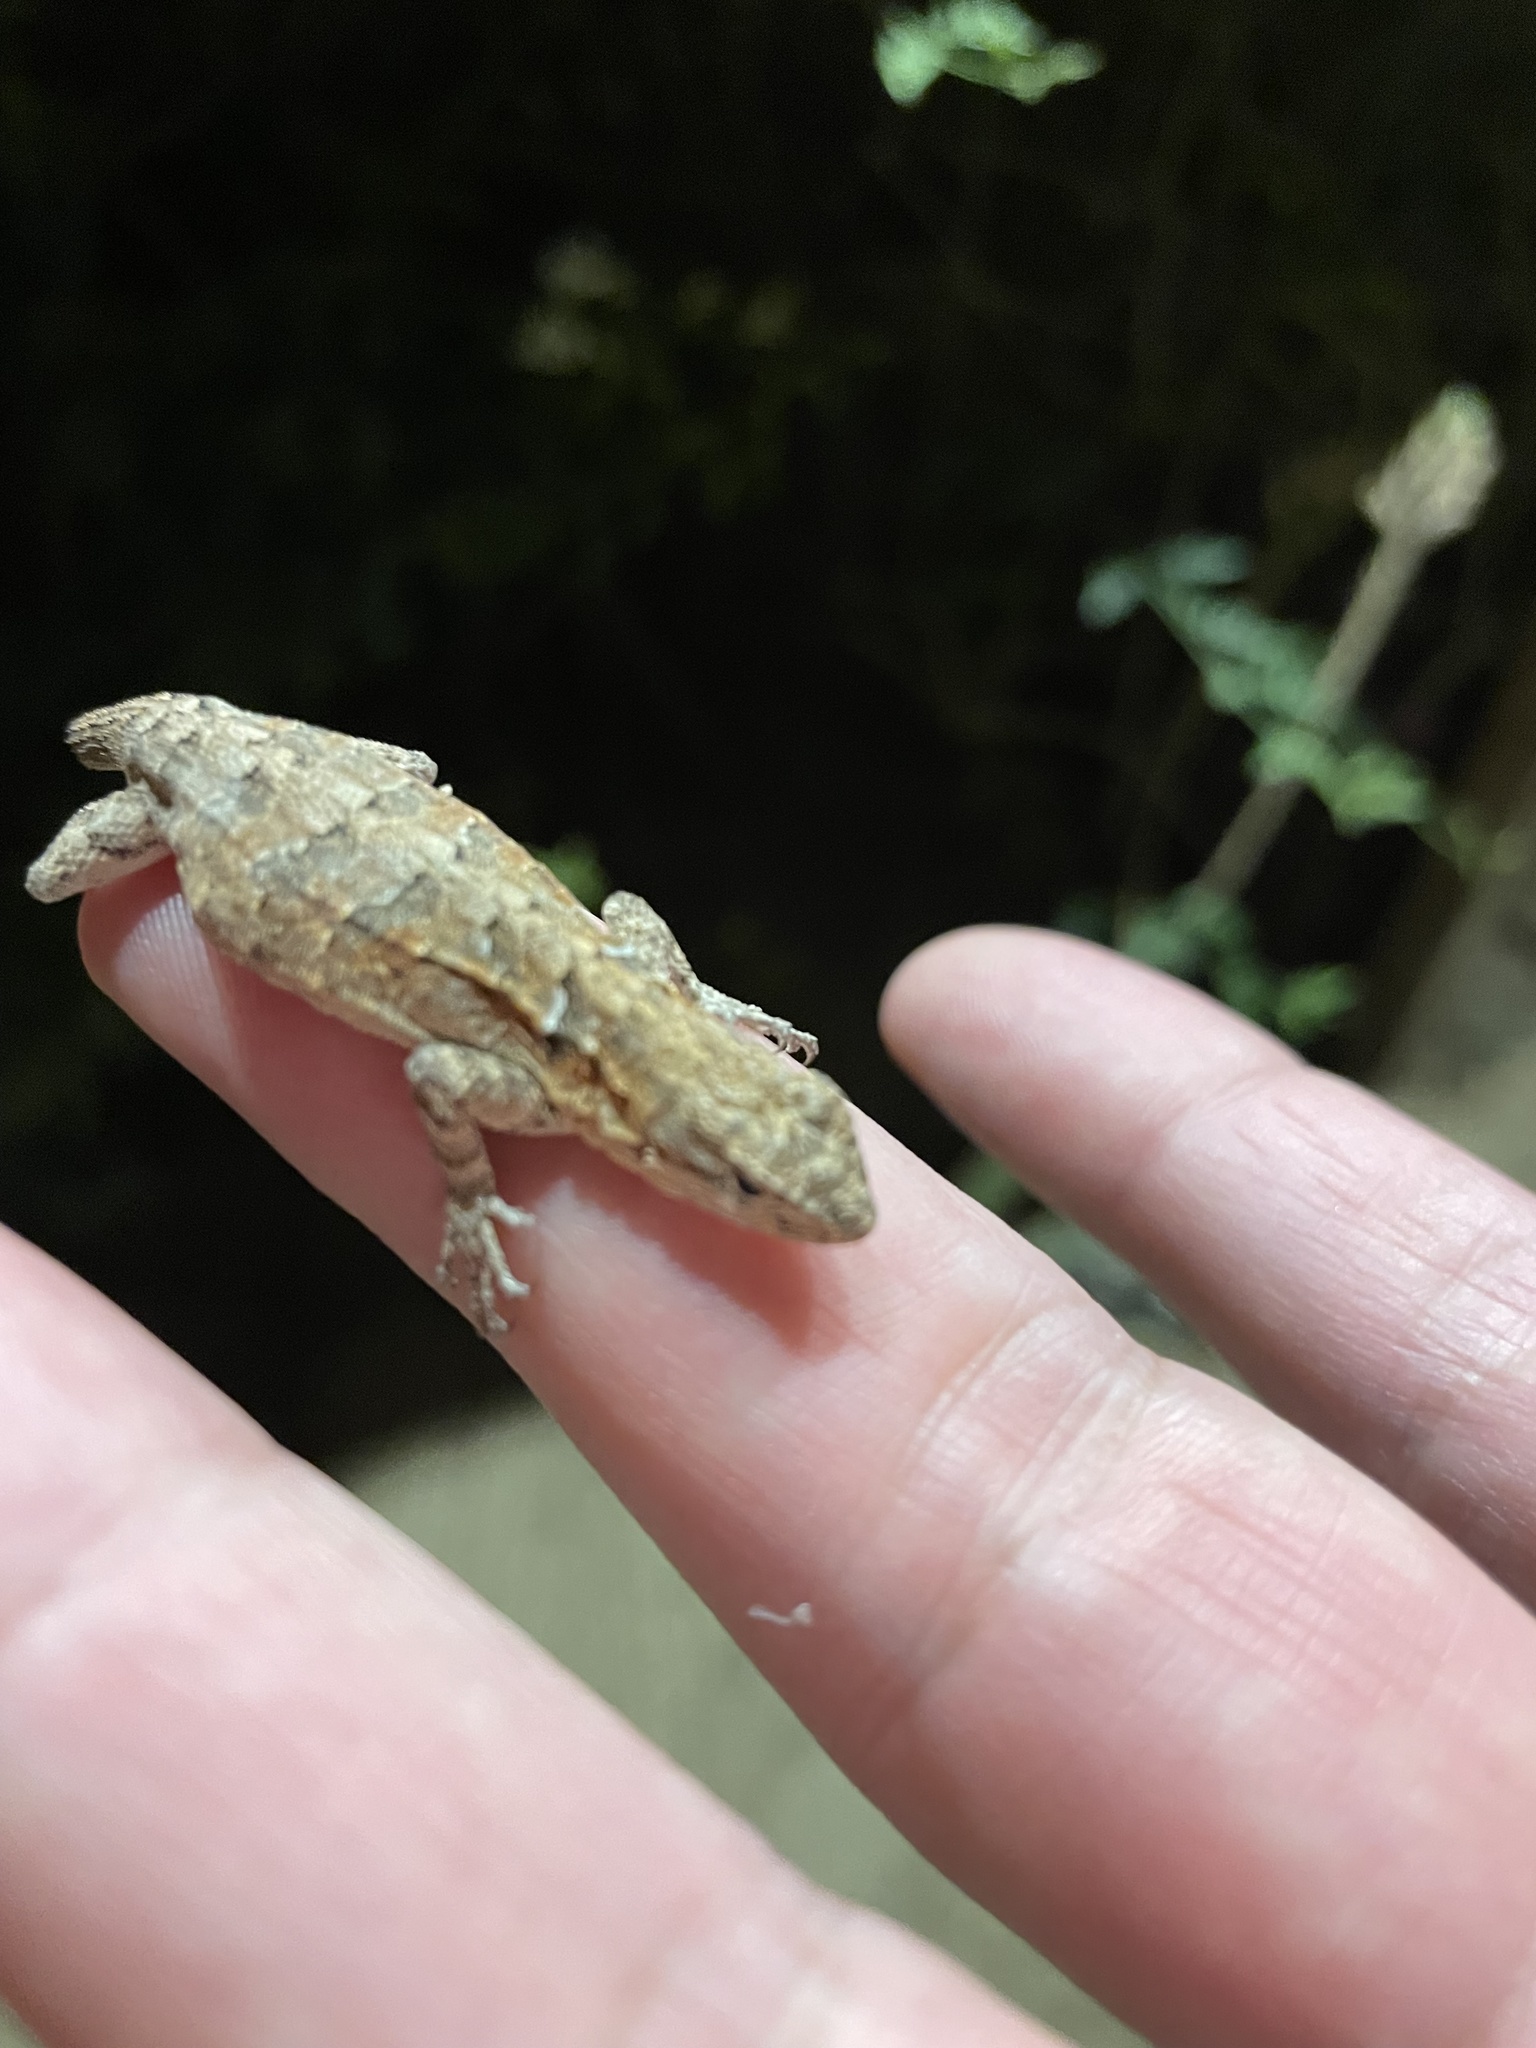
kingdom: Animalia
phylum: Chordata
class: Squamata
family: Phrynosomatidae
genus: Urosaurus
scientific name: Urosaurus nigricauda
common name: Baja california brush lizard
